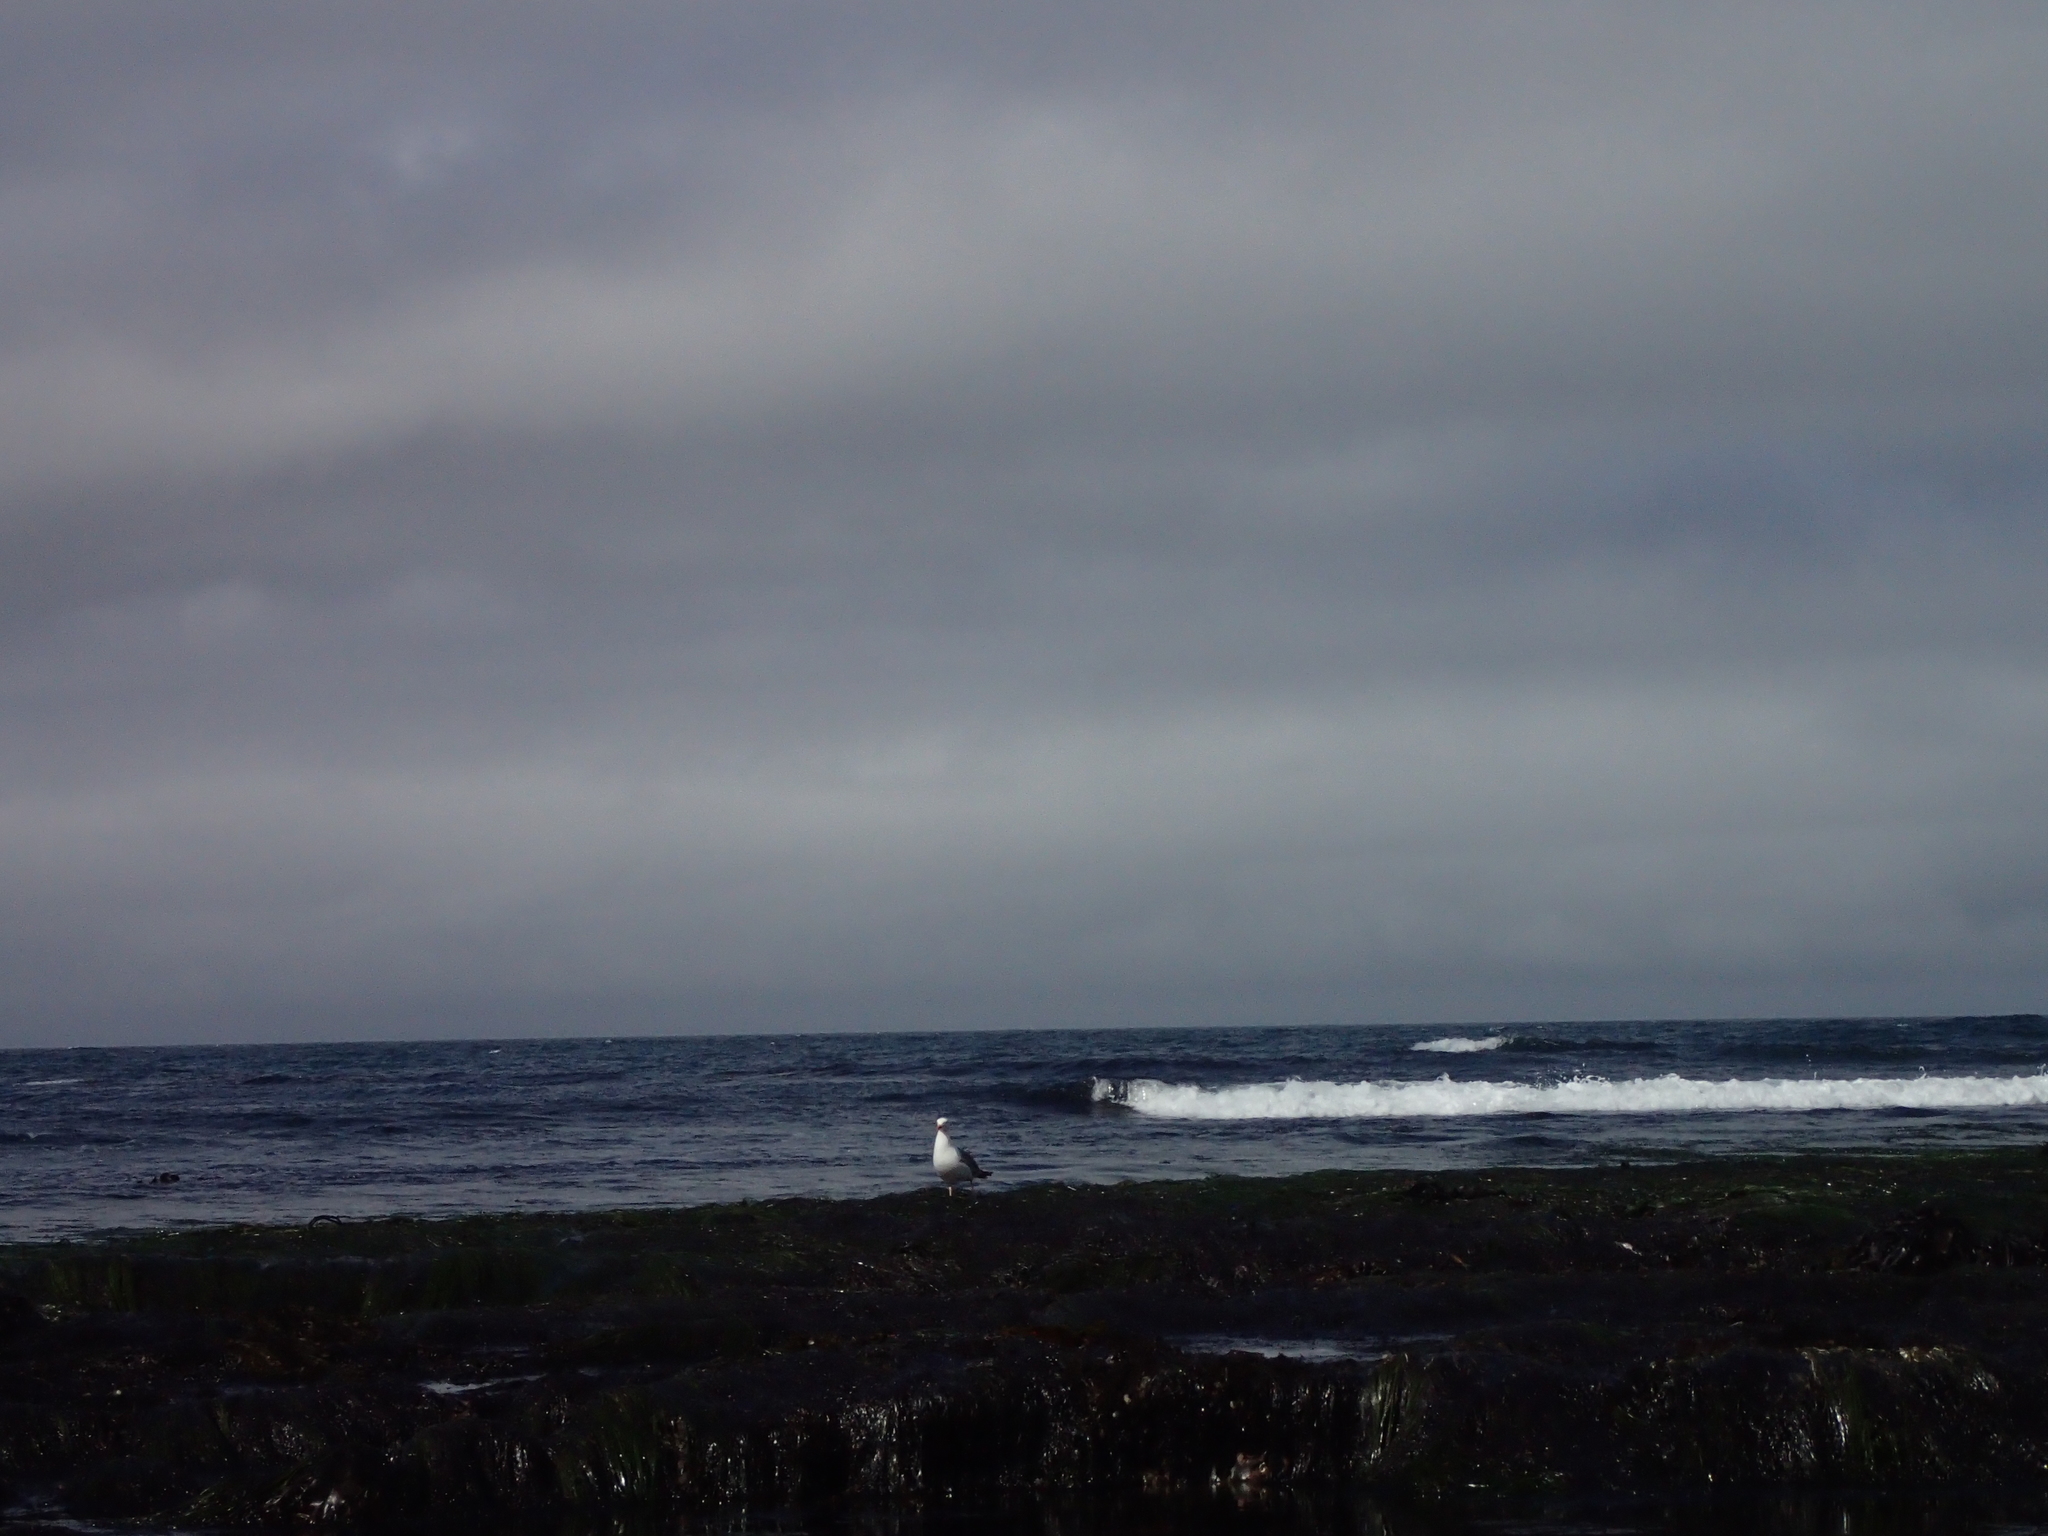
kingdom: Animalia
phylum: Chordata
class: Aves
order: Charadriiformes
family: Laridae
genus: Larus
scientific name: Larus occidentalis
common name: Western gull
